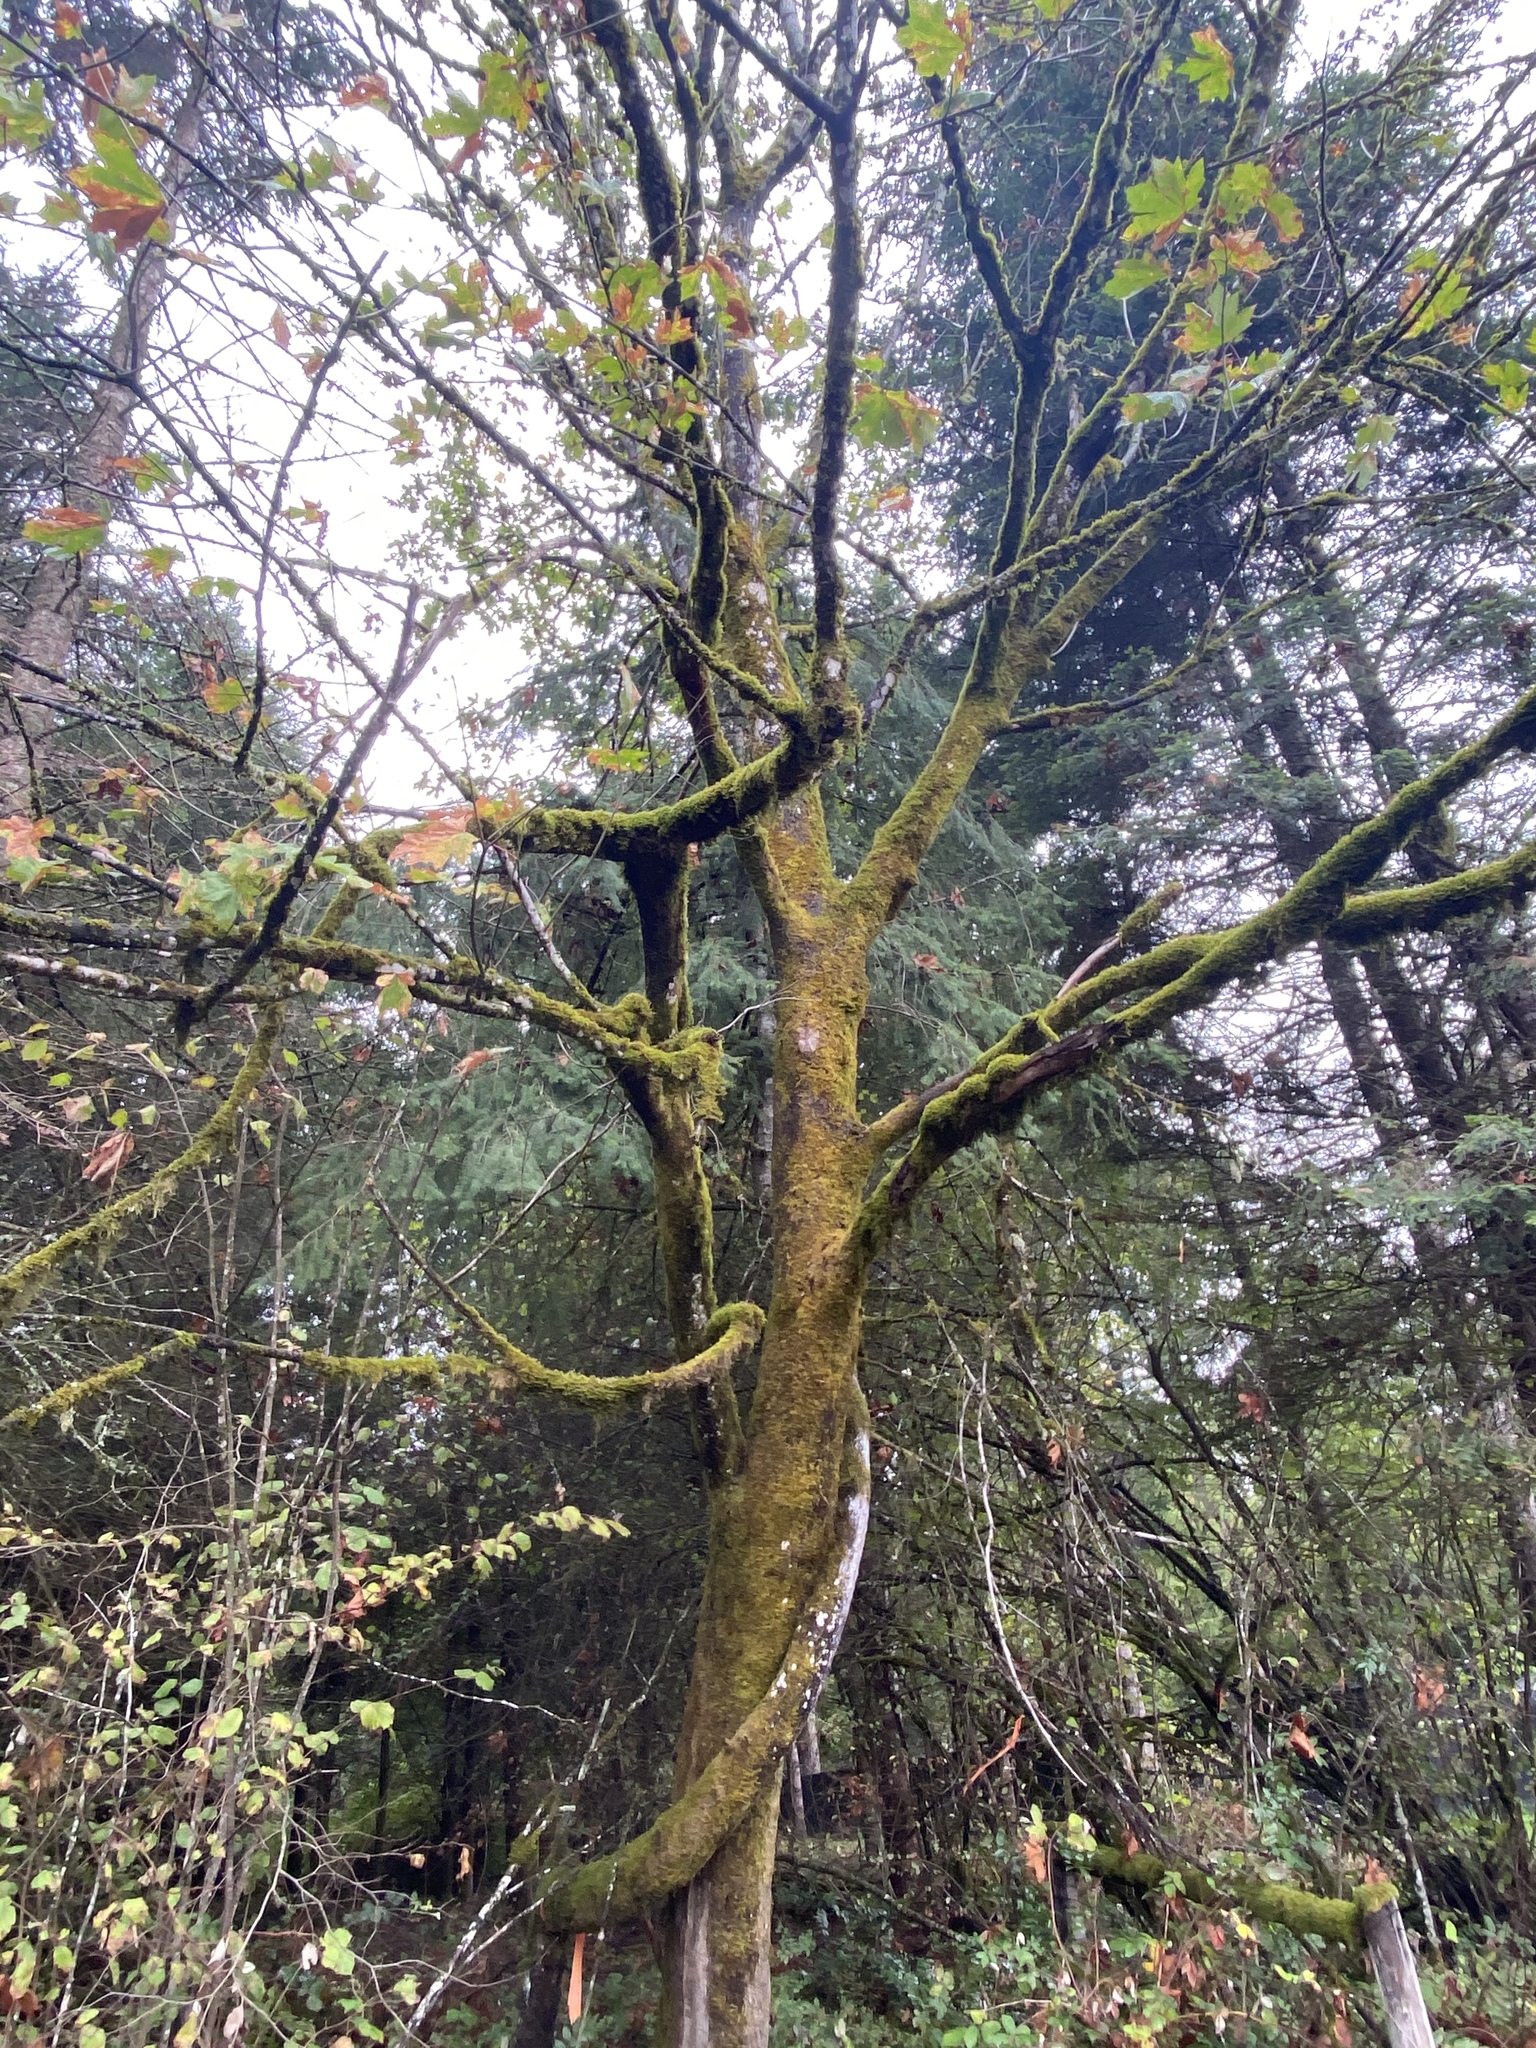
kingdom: Plantae
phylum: Tracheophyta
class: Magnoliopsida
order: Sapindales
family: Sapindaceae
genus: Acer
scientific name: Acer macrophyllum
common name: Oregon maple
